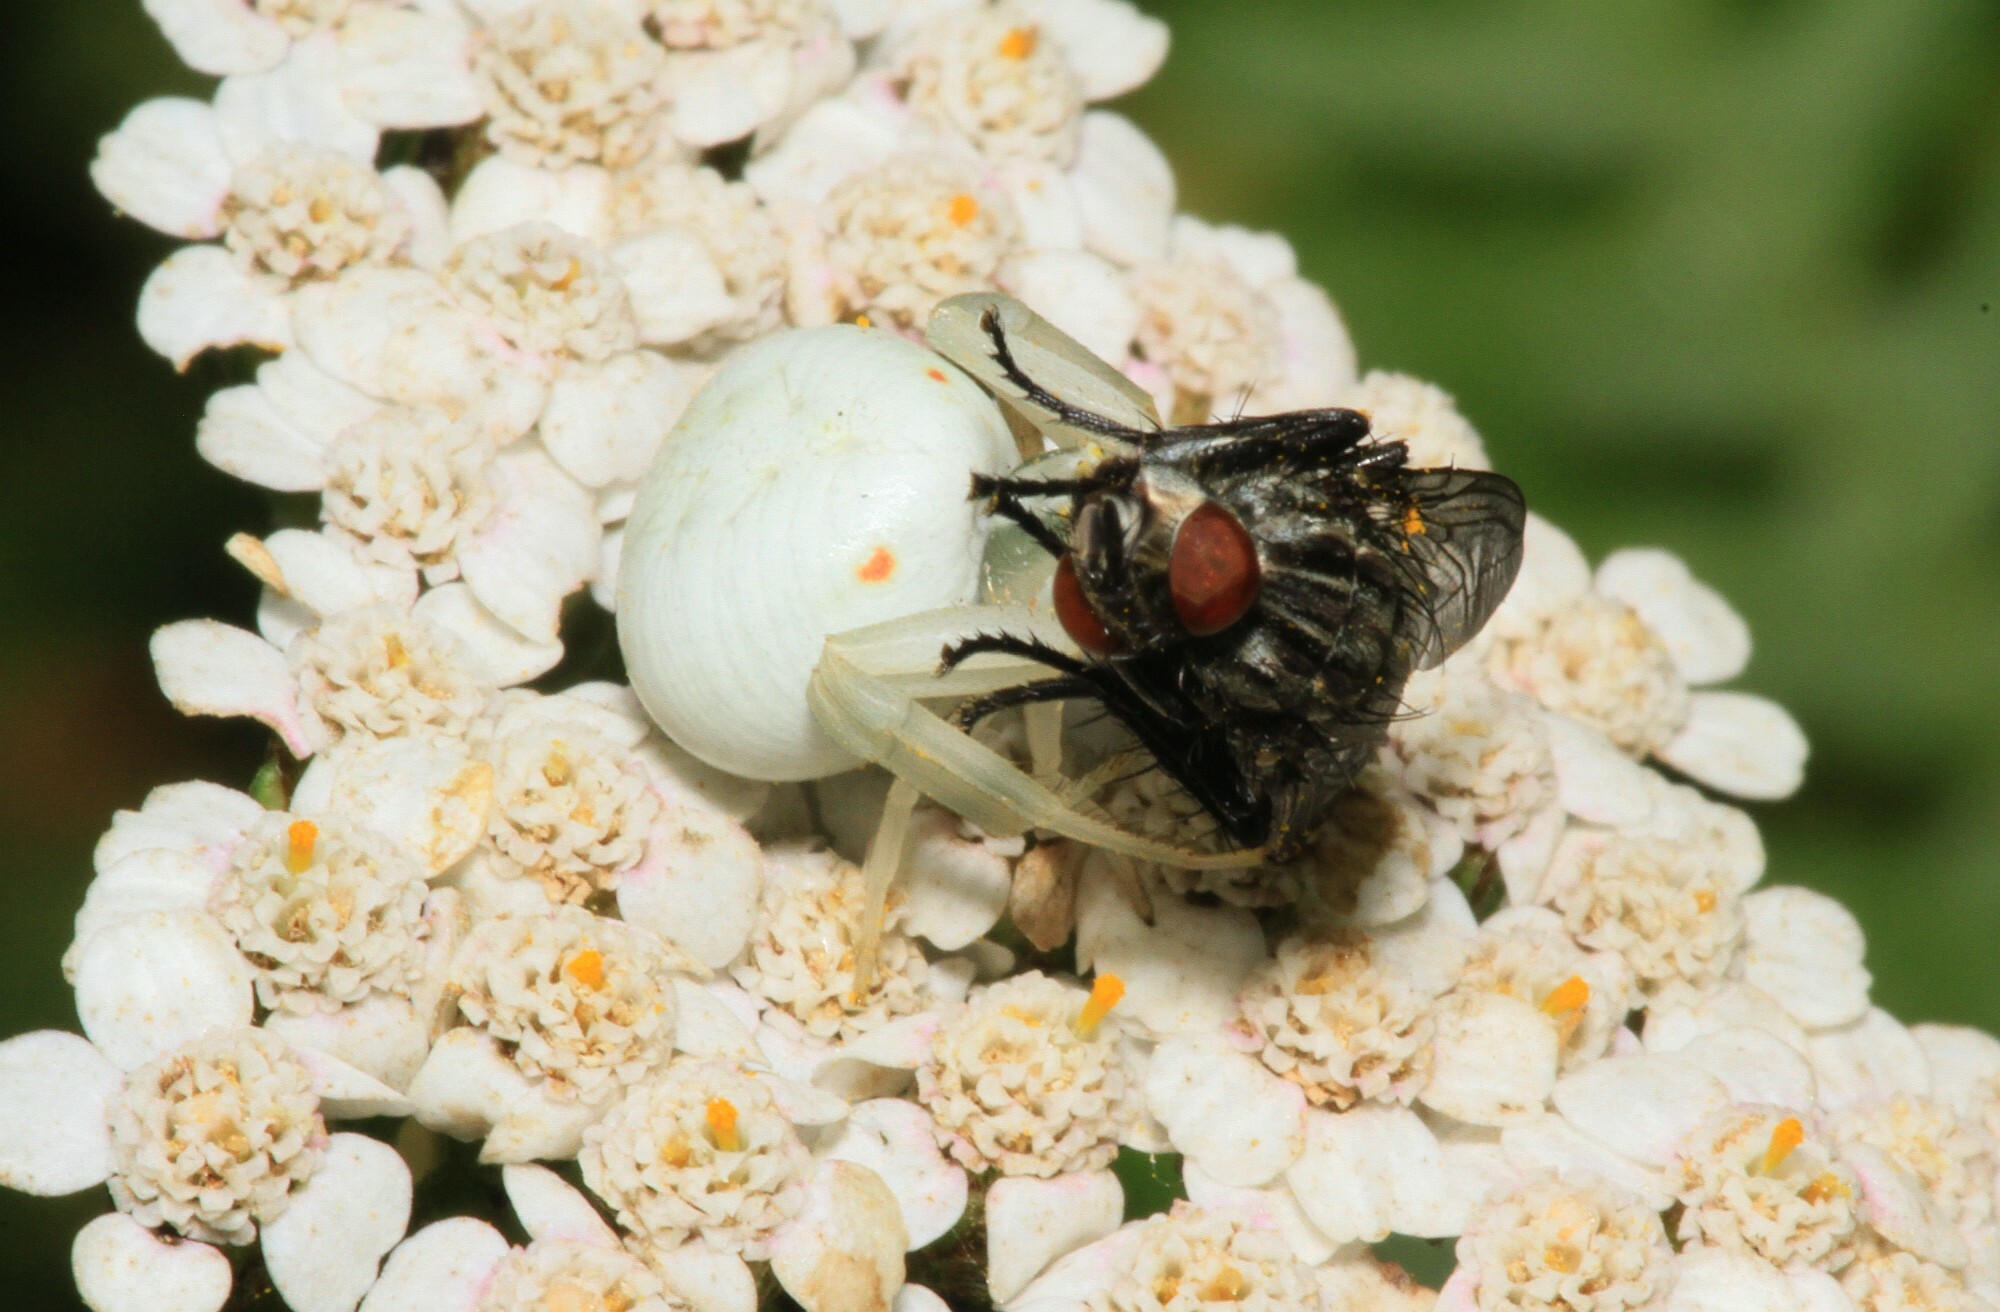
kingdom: Animalia
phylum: Arthropoda
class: Arachnida
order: Araneae
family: Thomisidae
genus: Misumena
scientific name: Misumena vatia
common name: Goldenrod crab spider
